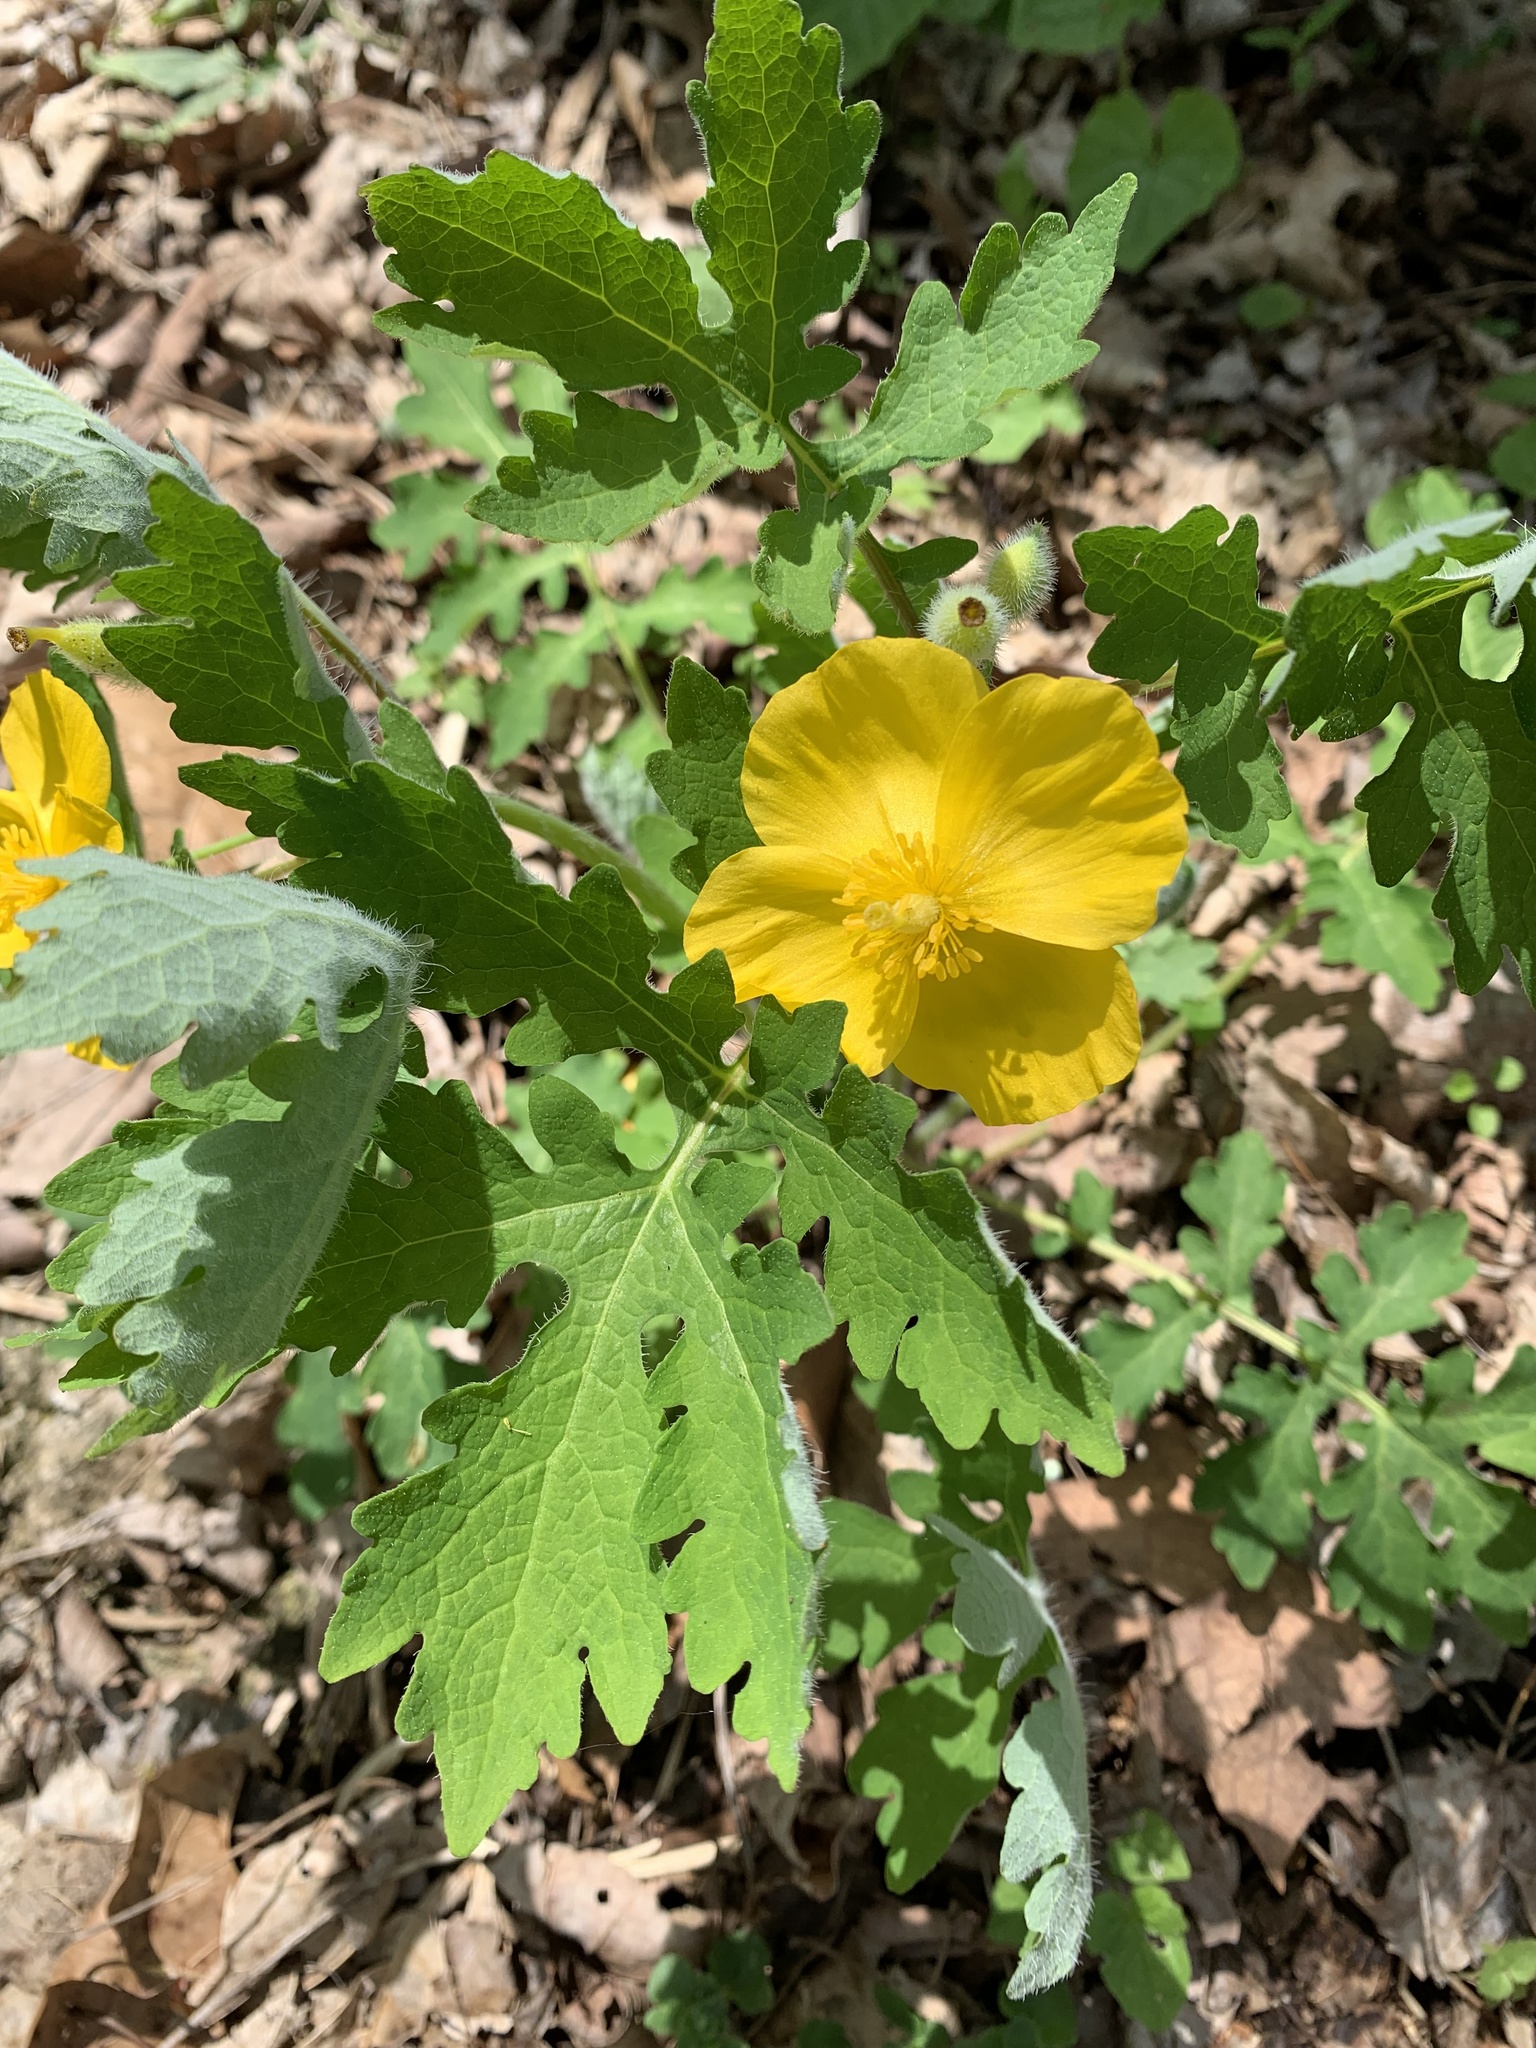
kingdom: Plantae
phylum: Tracheophyta
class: Magnoliopsida
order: Ranunculales
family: Papaveraceae
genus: Stylophorum
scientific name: Stylophorum diphyllum
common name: Celandine poppy
